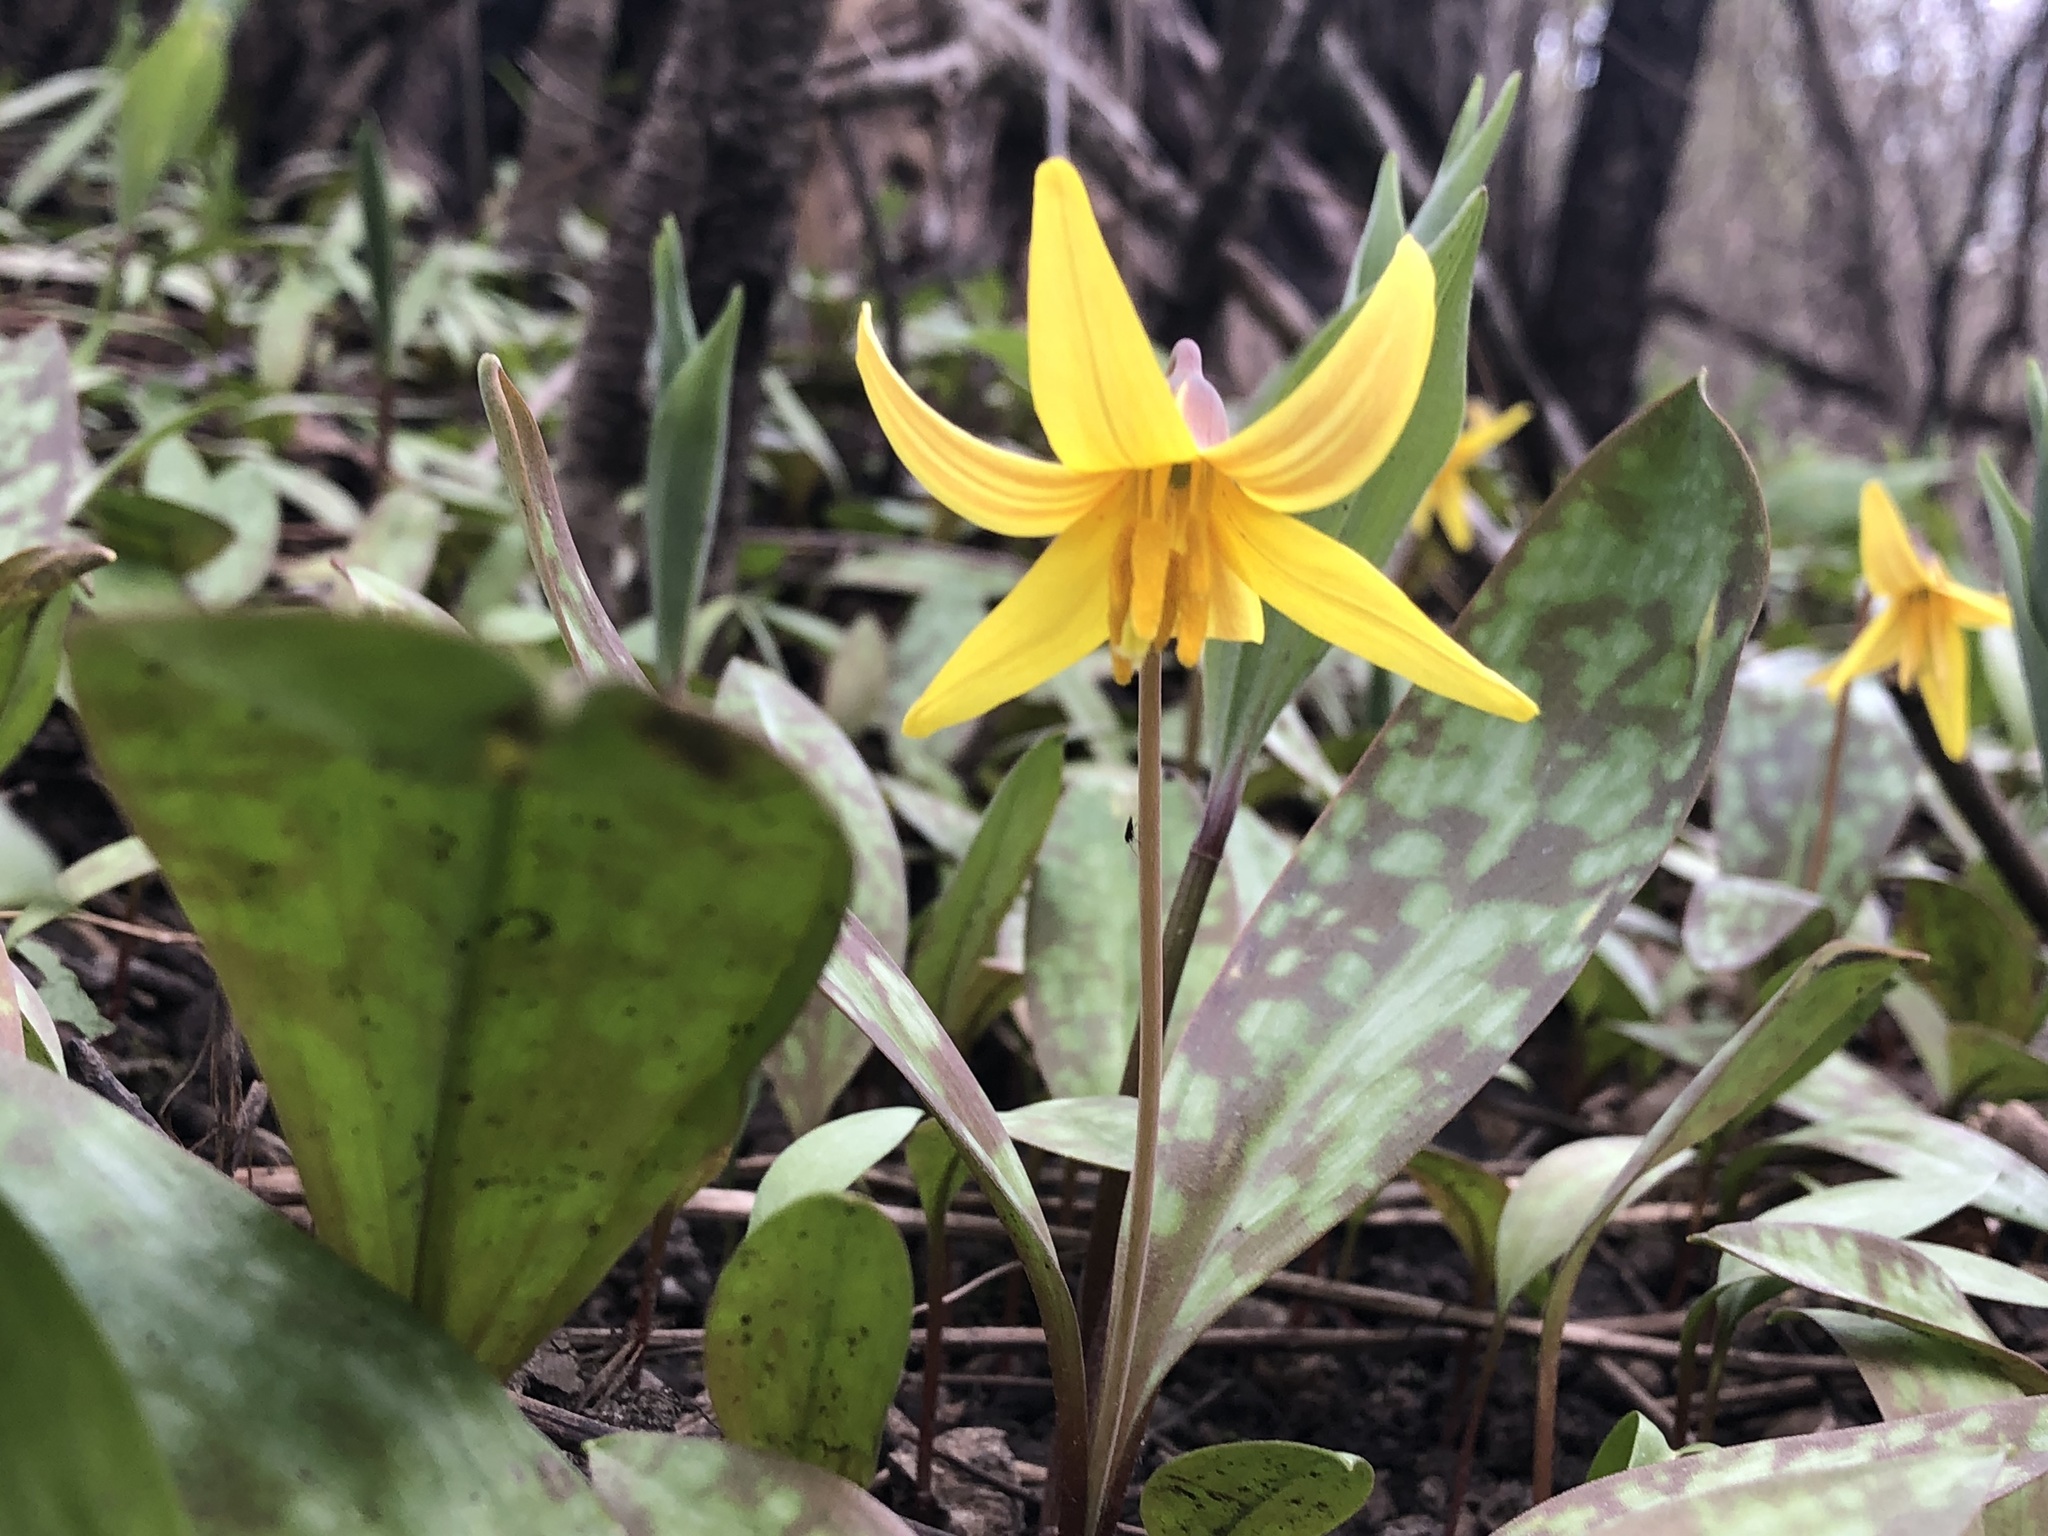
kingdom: Plantae
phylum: Tracheophyta
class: Liliopsida
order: Liliales
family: Liliaceae
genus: Erythronium
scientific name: Erythronium americanum
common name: Yellow adder's-tongue
